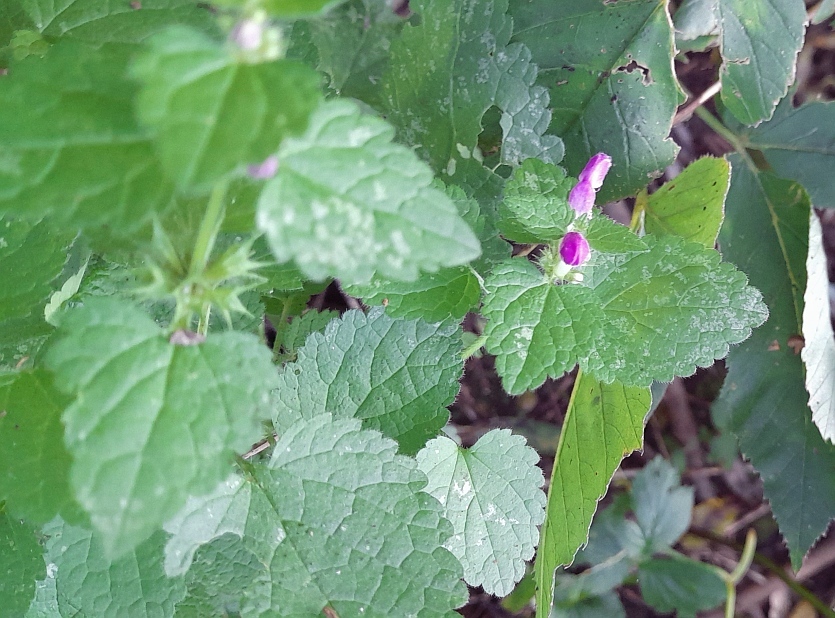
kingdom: Plantae
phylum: Tracheophyta
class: Magnoliopsida
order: Lamiales
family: Lamiaceae
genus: Lamium
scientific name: Lamium maculatum
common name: Spotted dead-nettle
